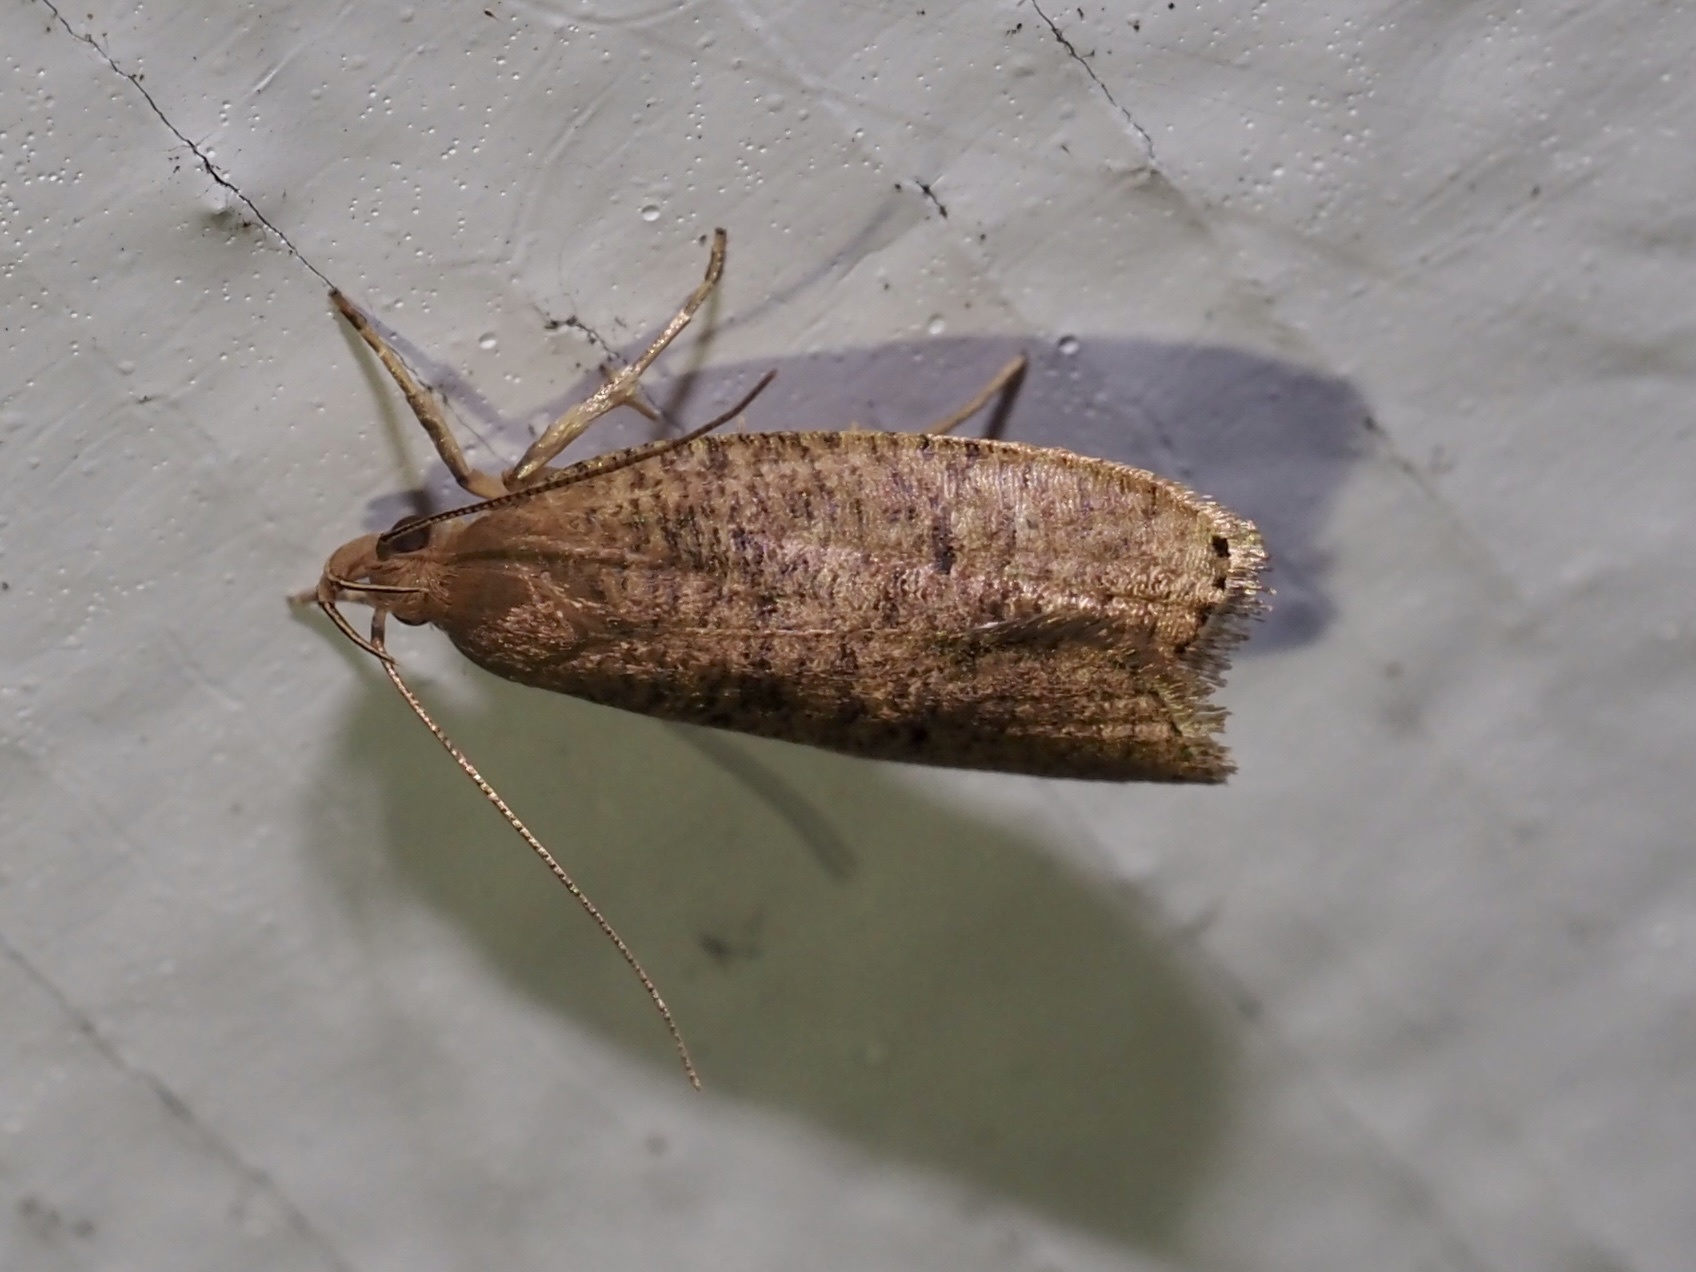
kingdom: Animalia
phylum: Arthropoda
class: Insecta
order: Lepidoptera
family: Depressariidae
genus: Psilocorsis
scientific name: Psilocorsis reflexella
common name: Dotted leaftier moth
